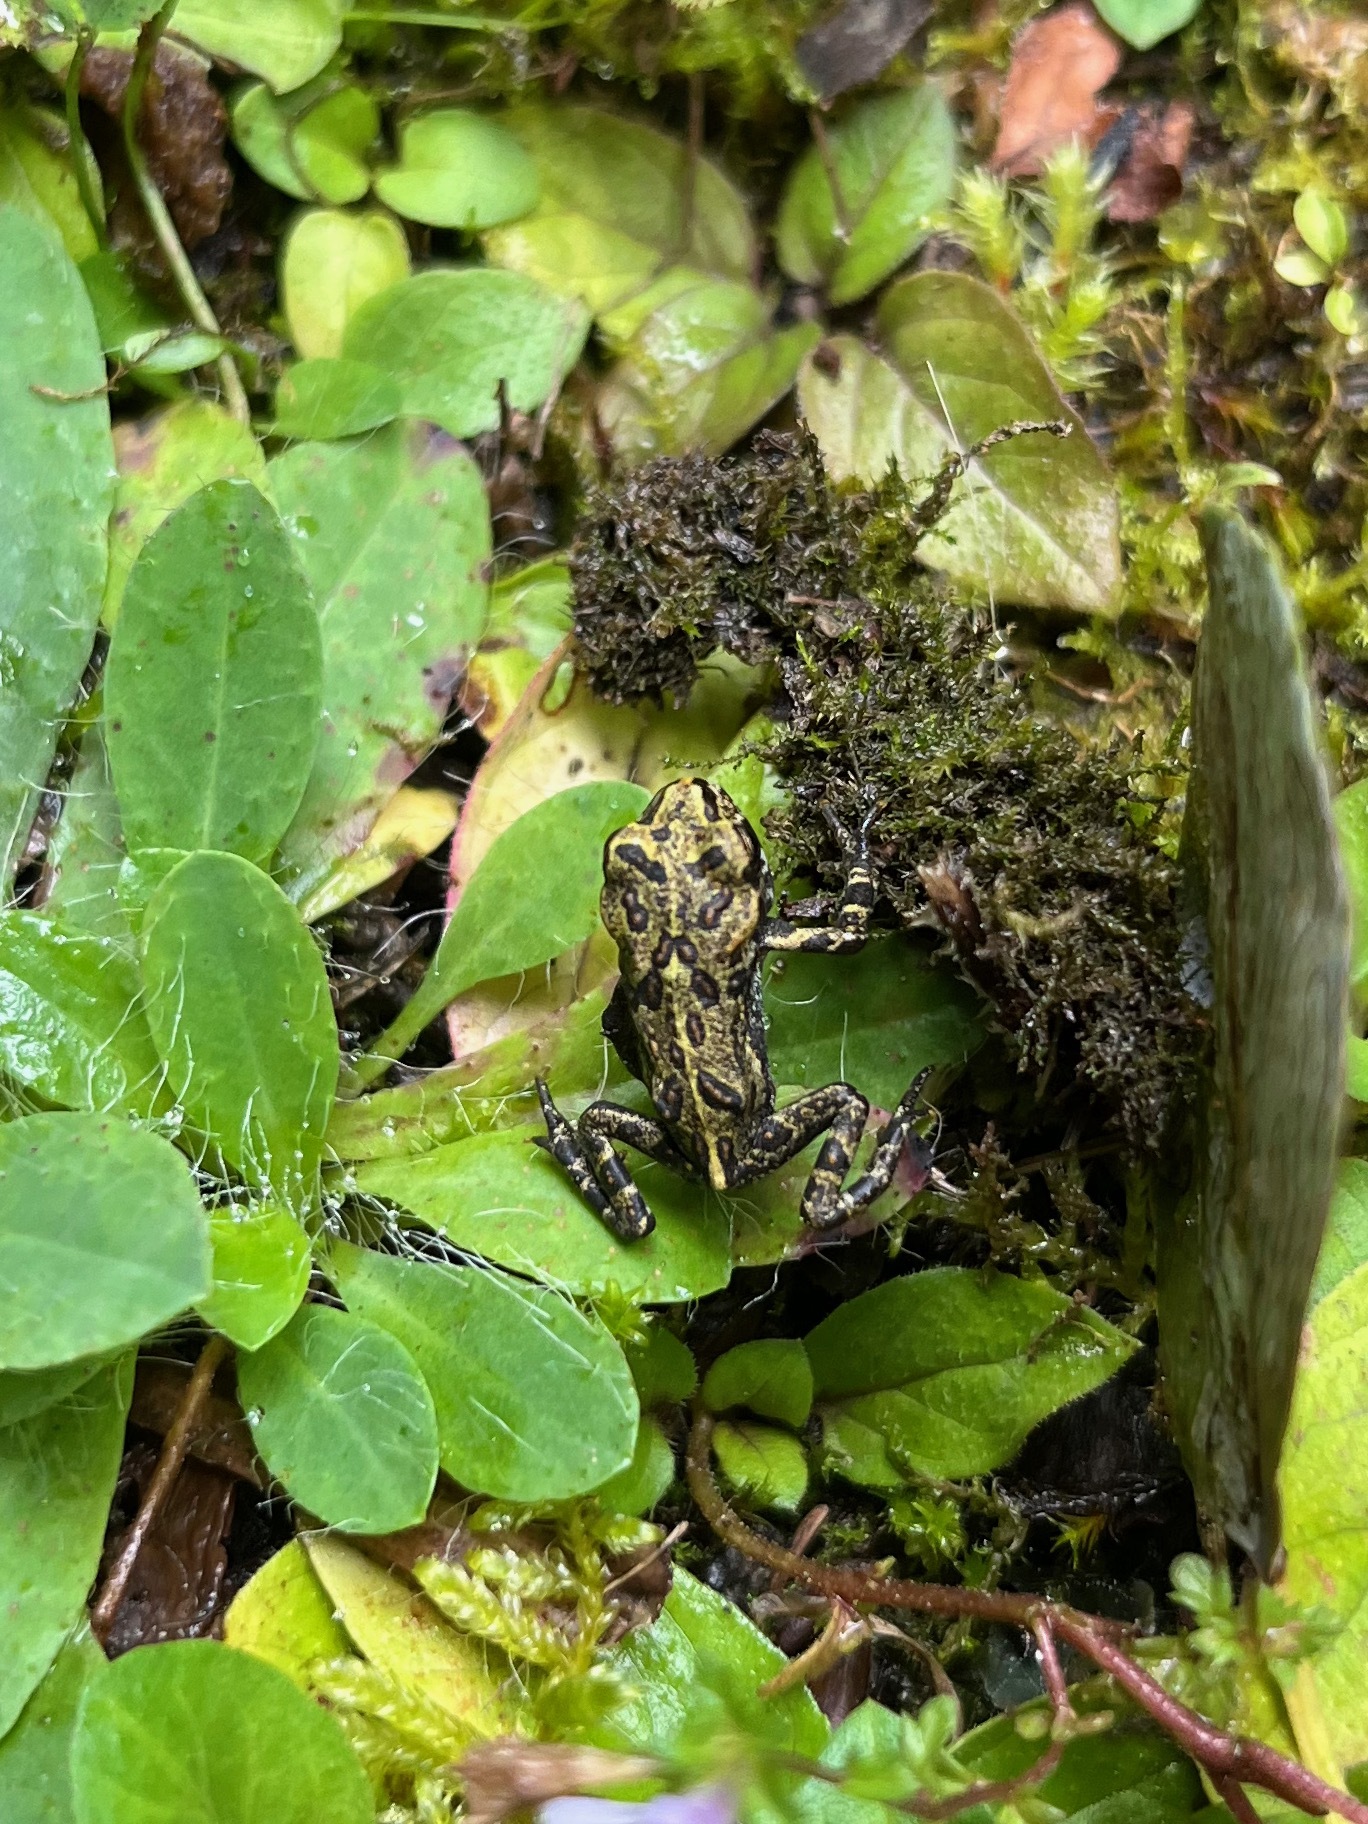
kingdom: Animalia
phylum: Chordata
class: Amphibia
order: Anura
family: Bufonidae
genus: Anaxyrus
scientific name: Anaxyrus boreas
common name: Western toad
